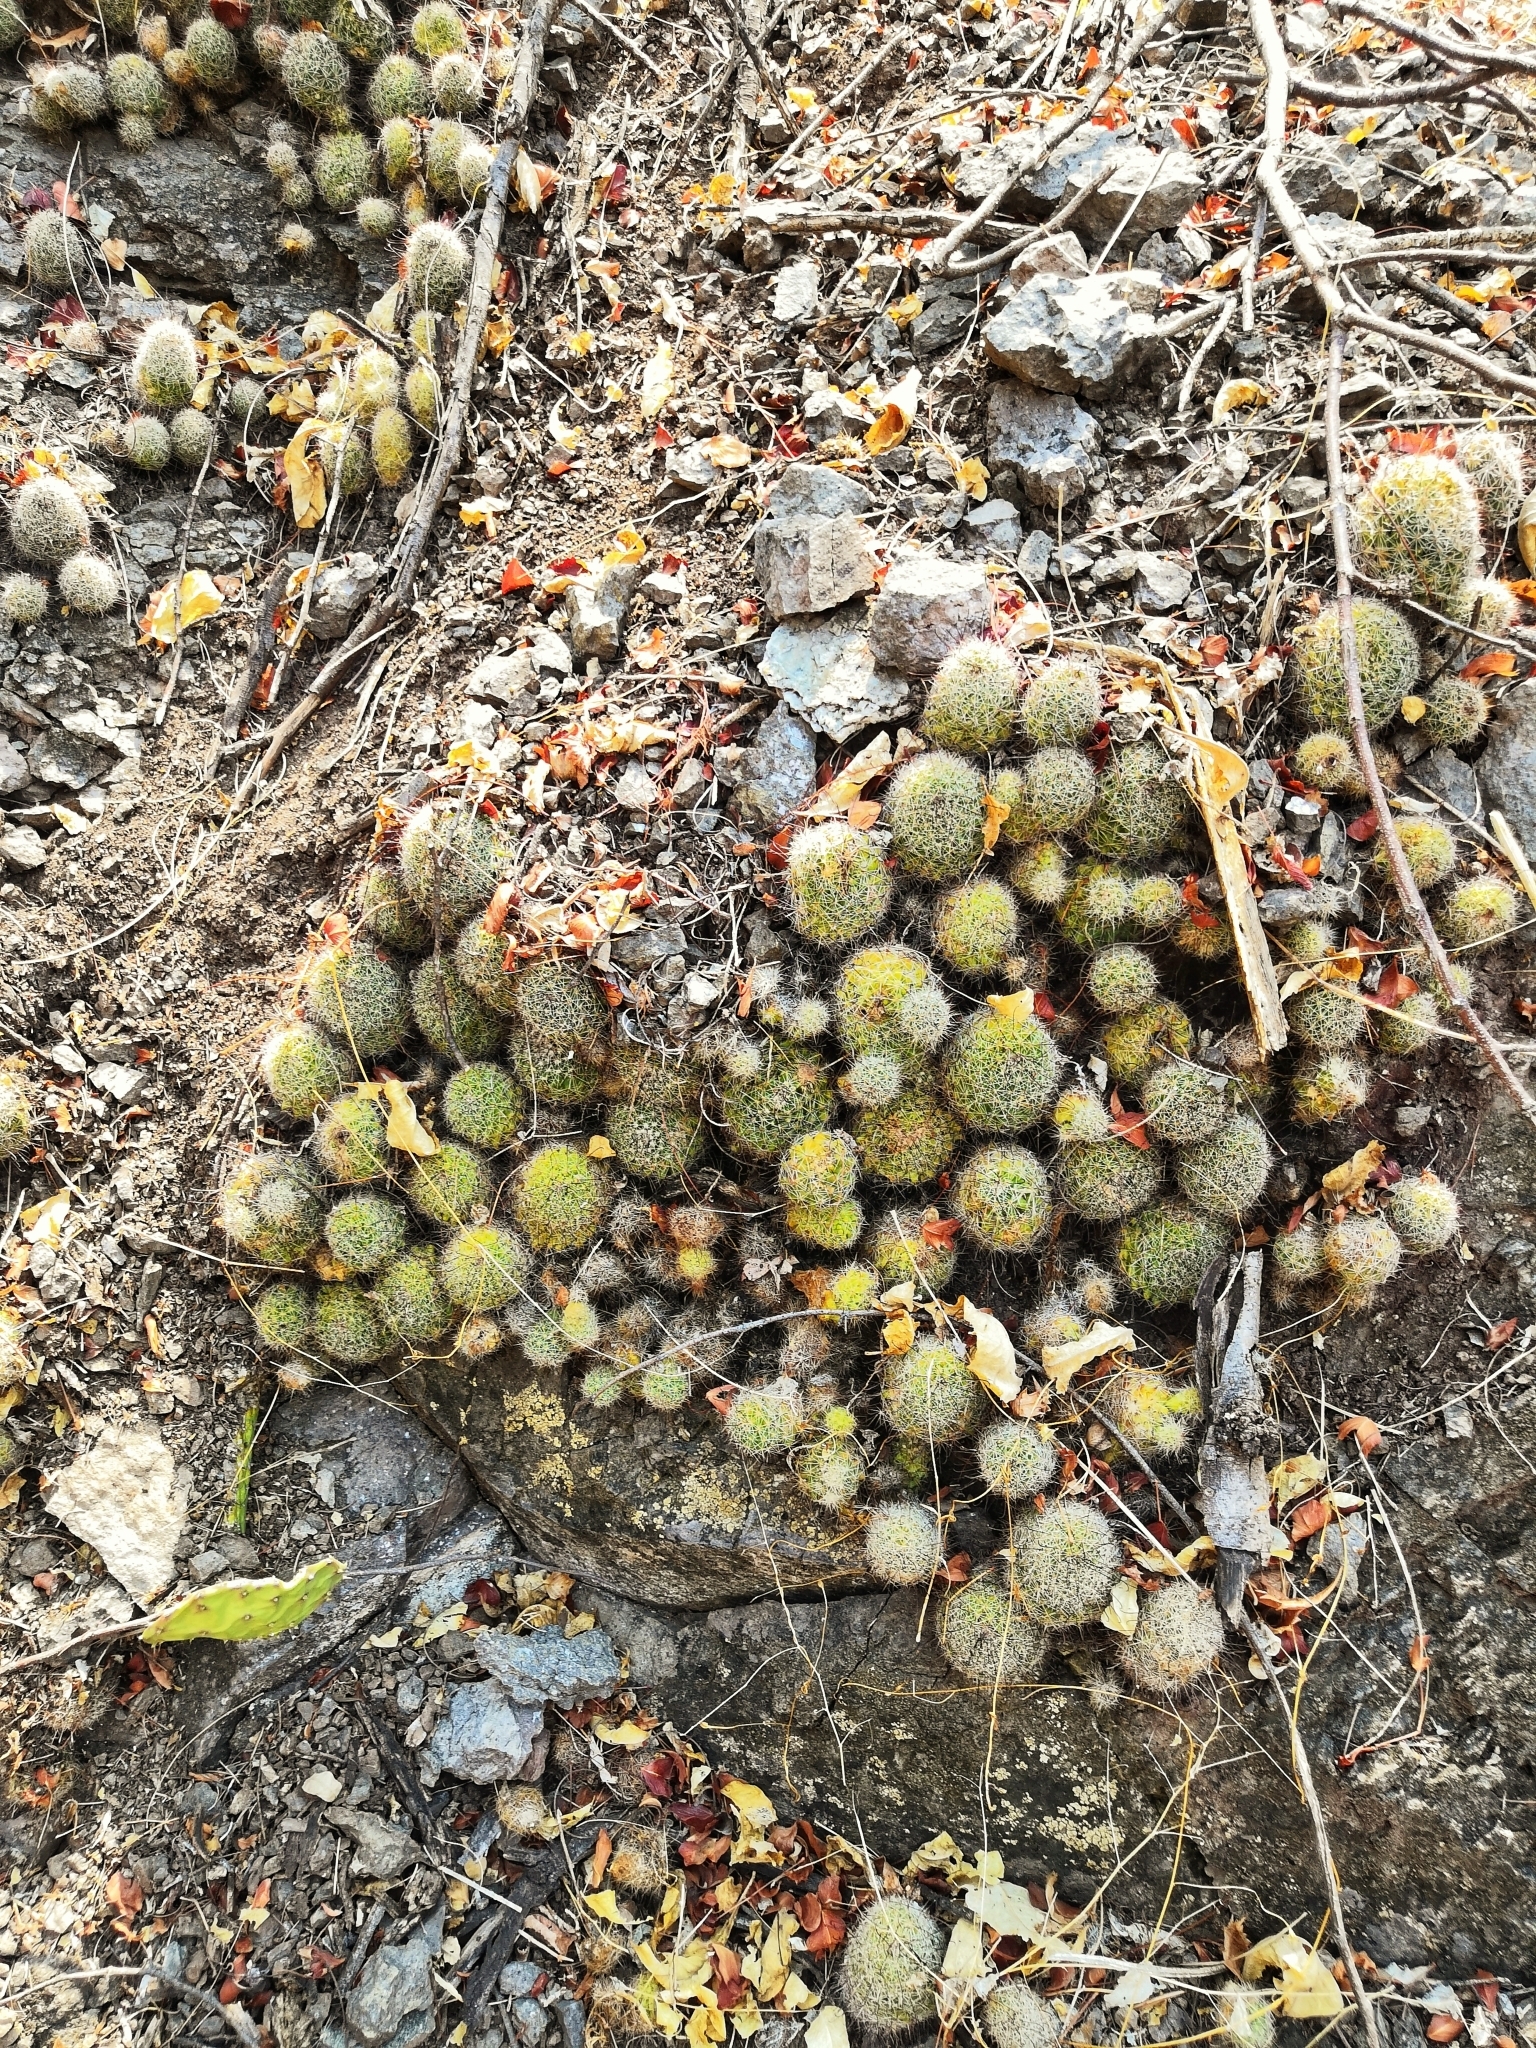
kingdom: Plantae
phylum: Tracheophyta
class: Magnoliopsida
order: Caryophyllales
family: Cactaceae
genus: Mammillaria
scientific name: Mammillaria beneckei
